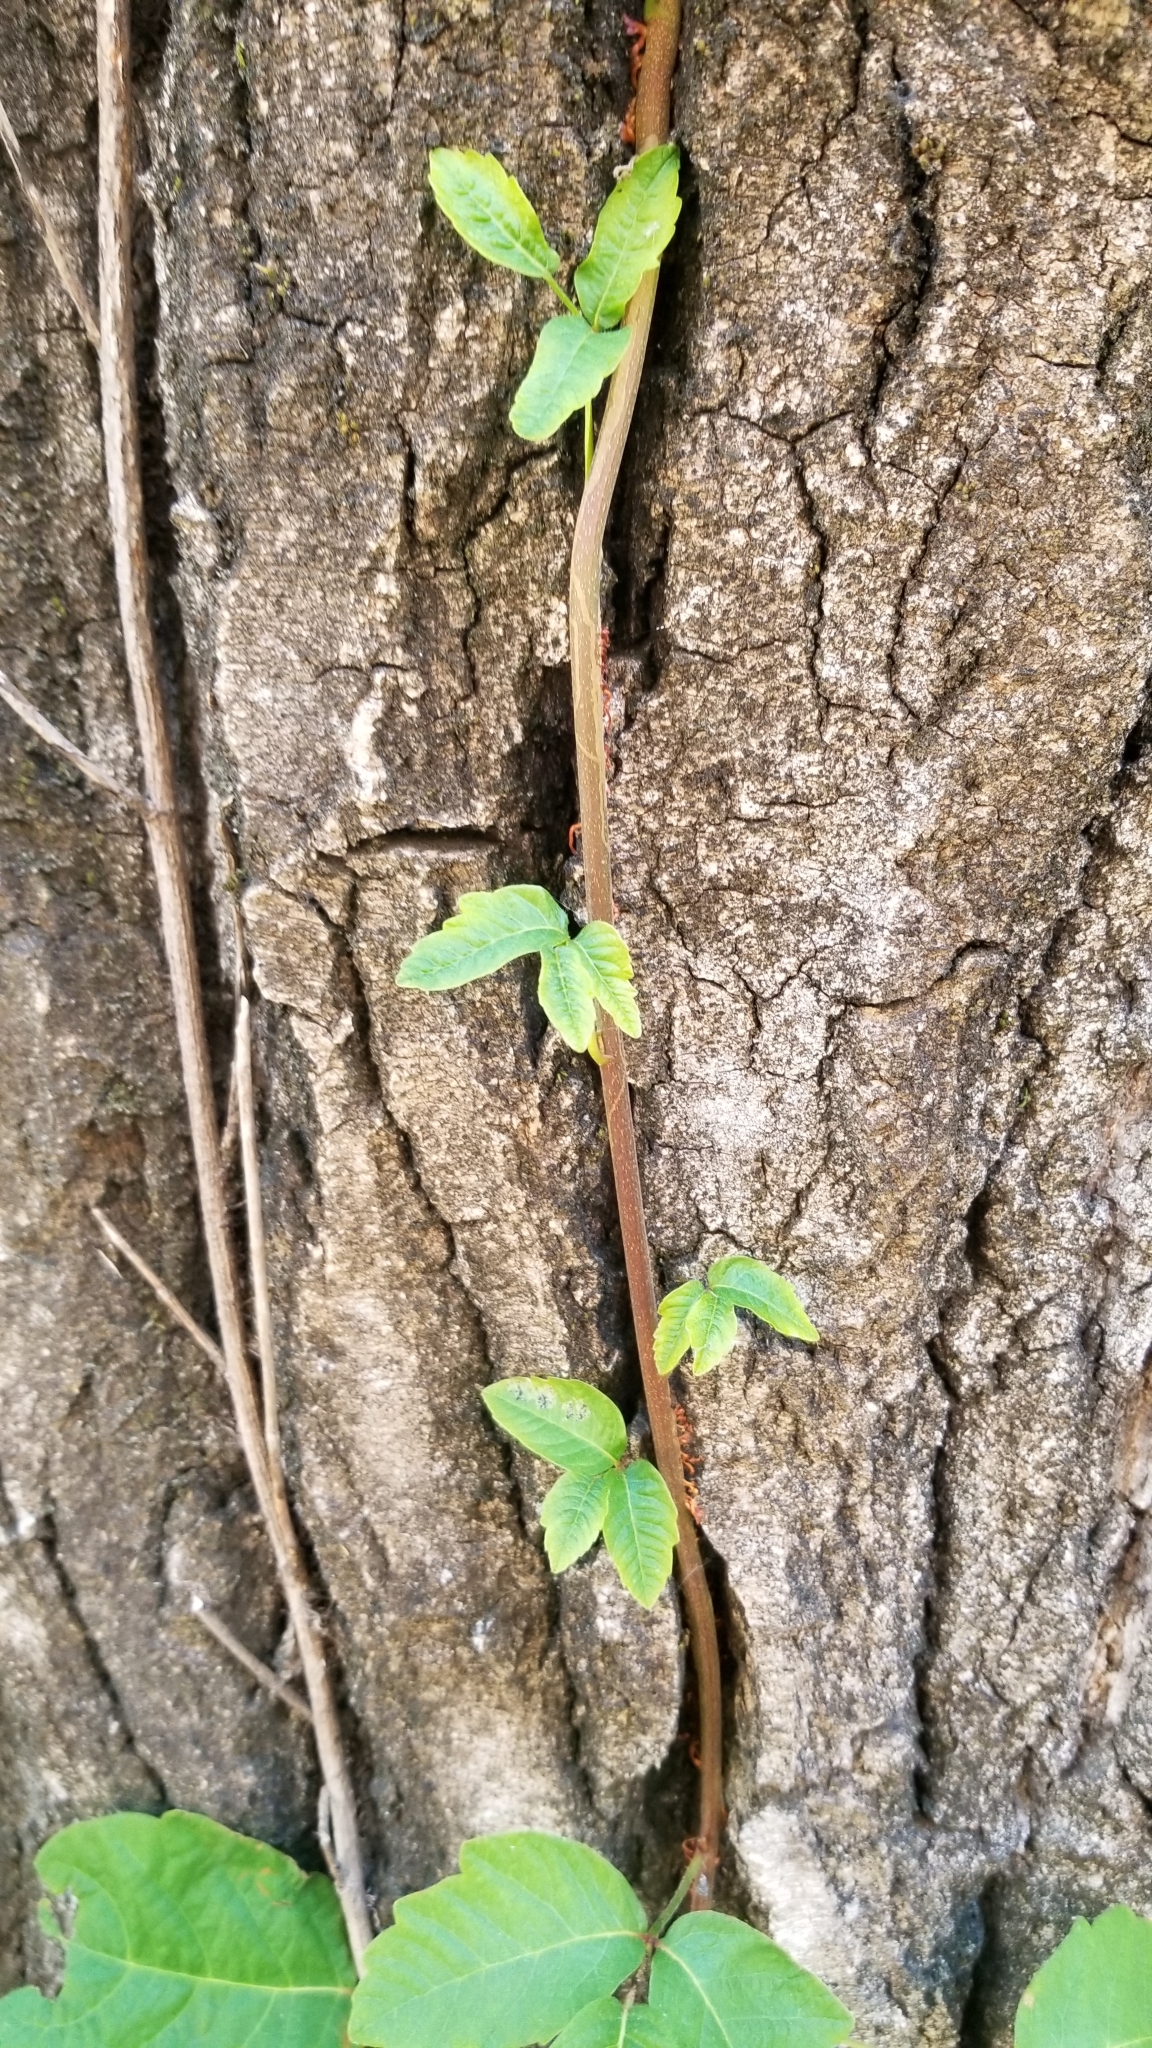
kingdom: Plantae
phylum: Tracheophyta
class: Magnoliopsida
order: Sapindales
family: Anacardiaceae
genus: Toxicodendron
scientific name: Toxicodendron diversilobum
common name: Pacific poison-oak
